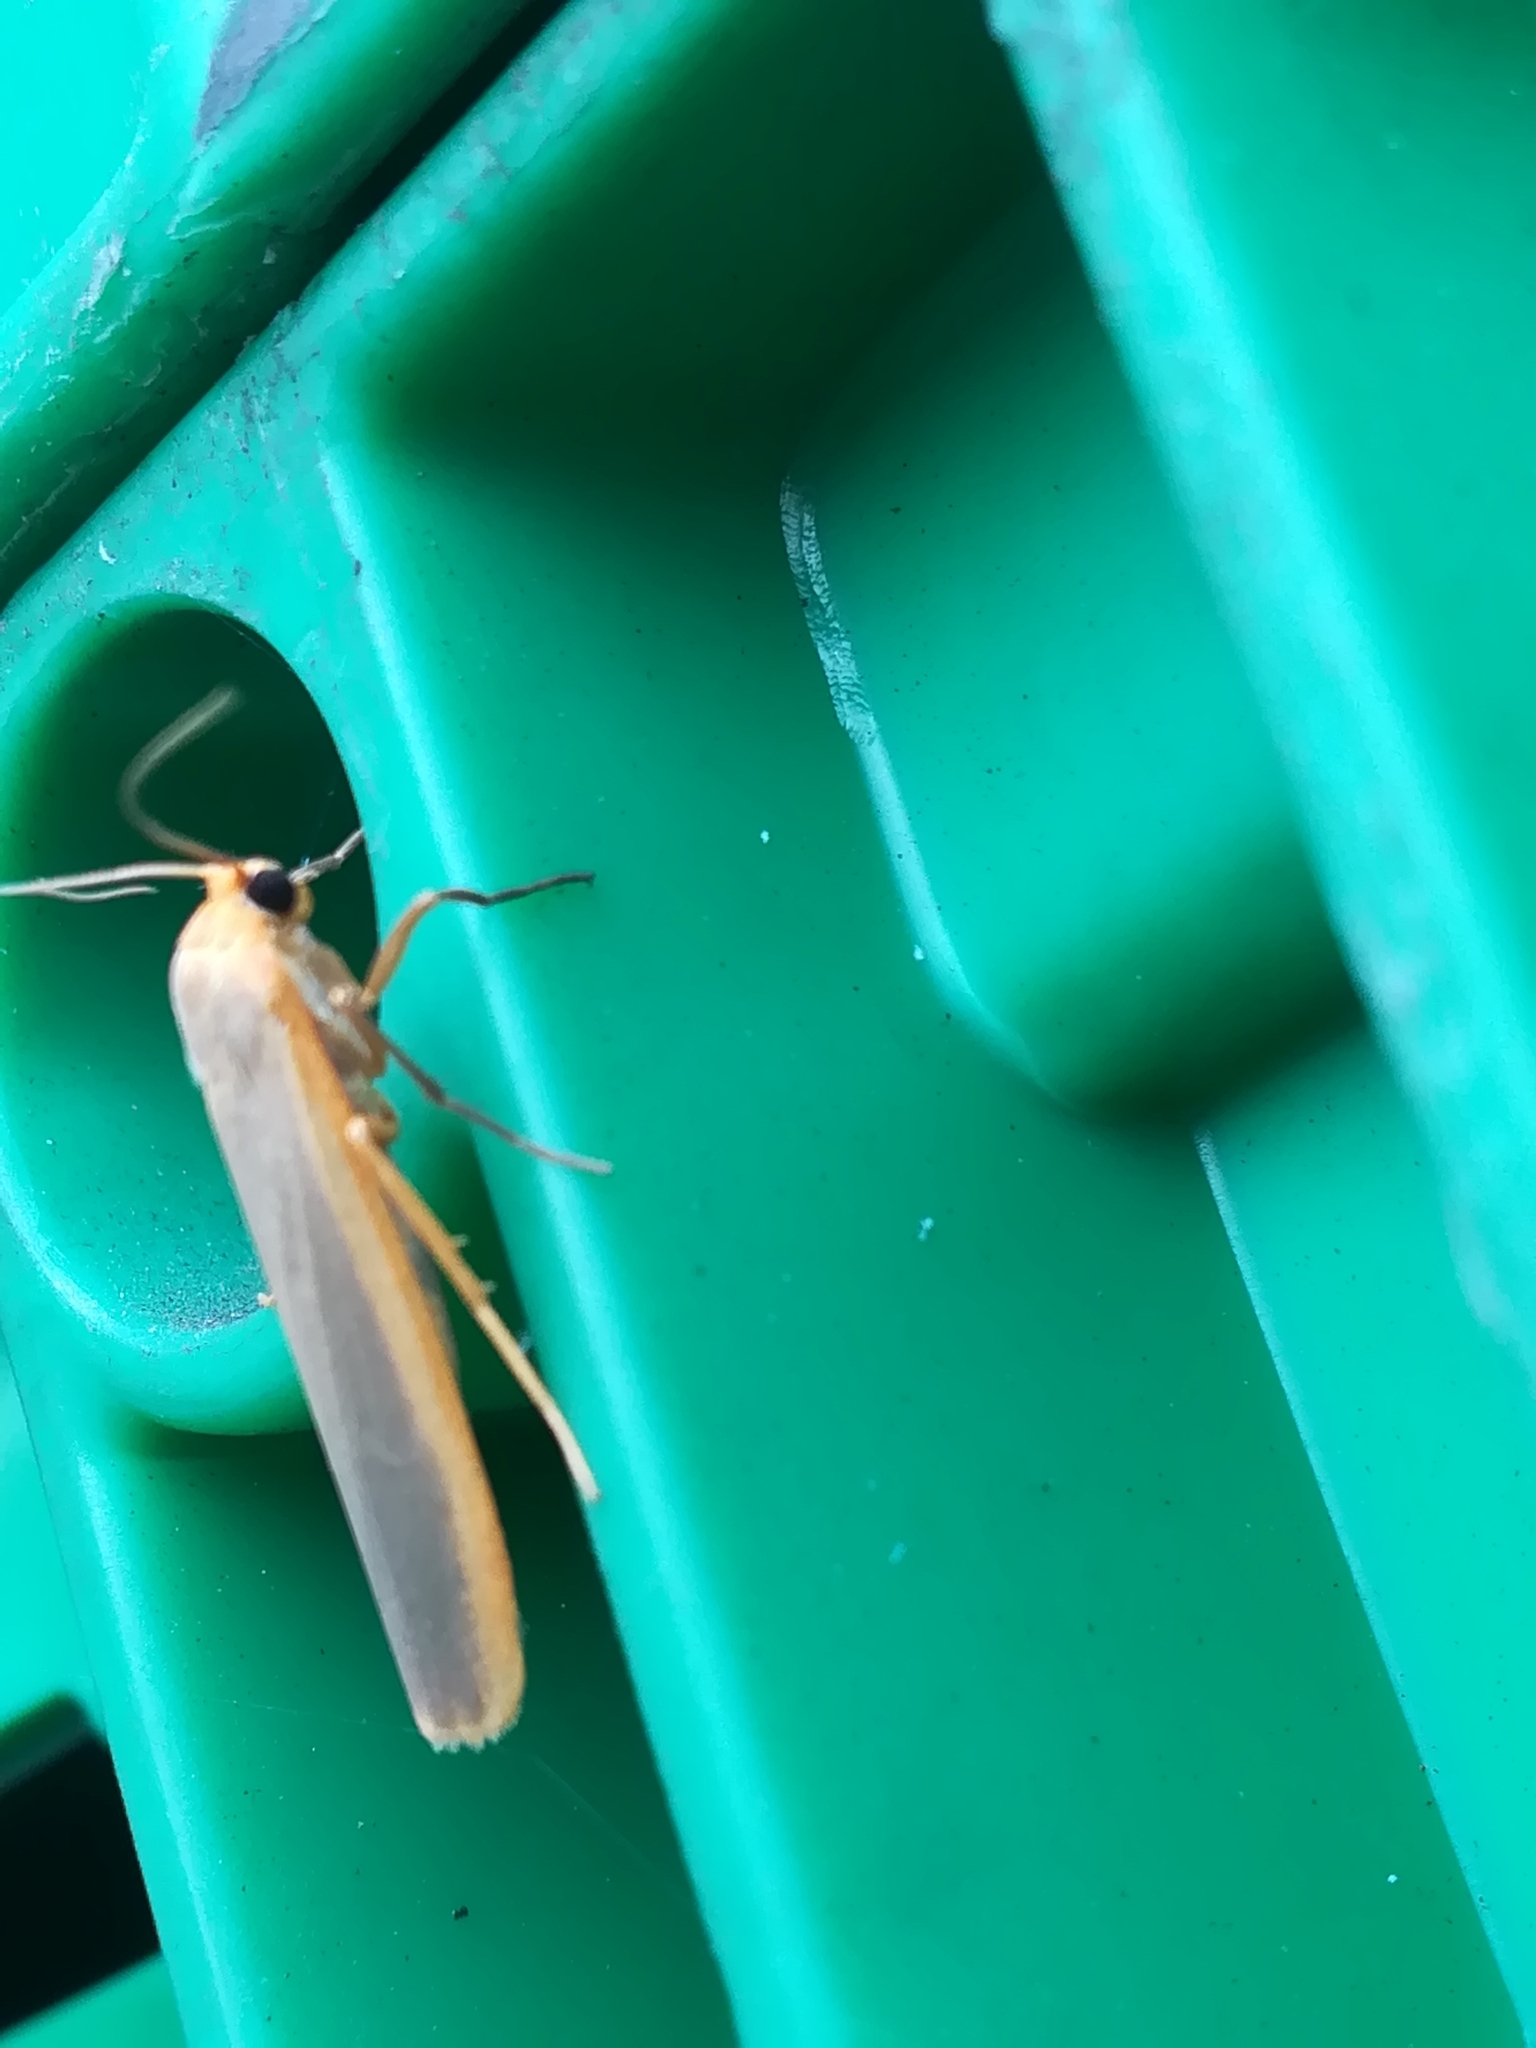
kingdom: Animalia
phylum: Arthropoda
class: Insecta
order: Lepidoptera
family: Erebidae
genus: Manulea
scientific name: Manulea complana
